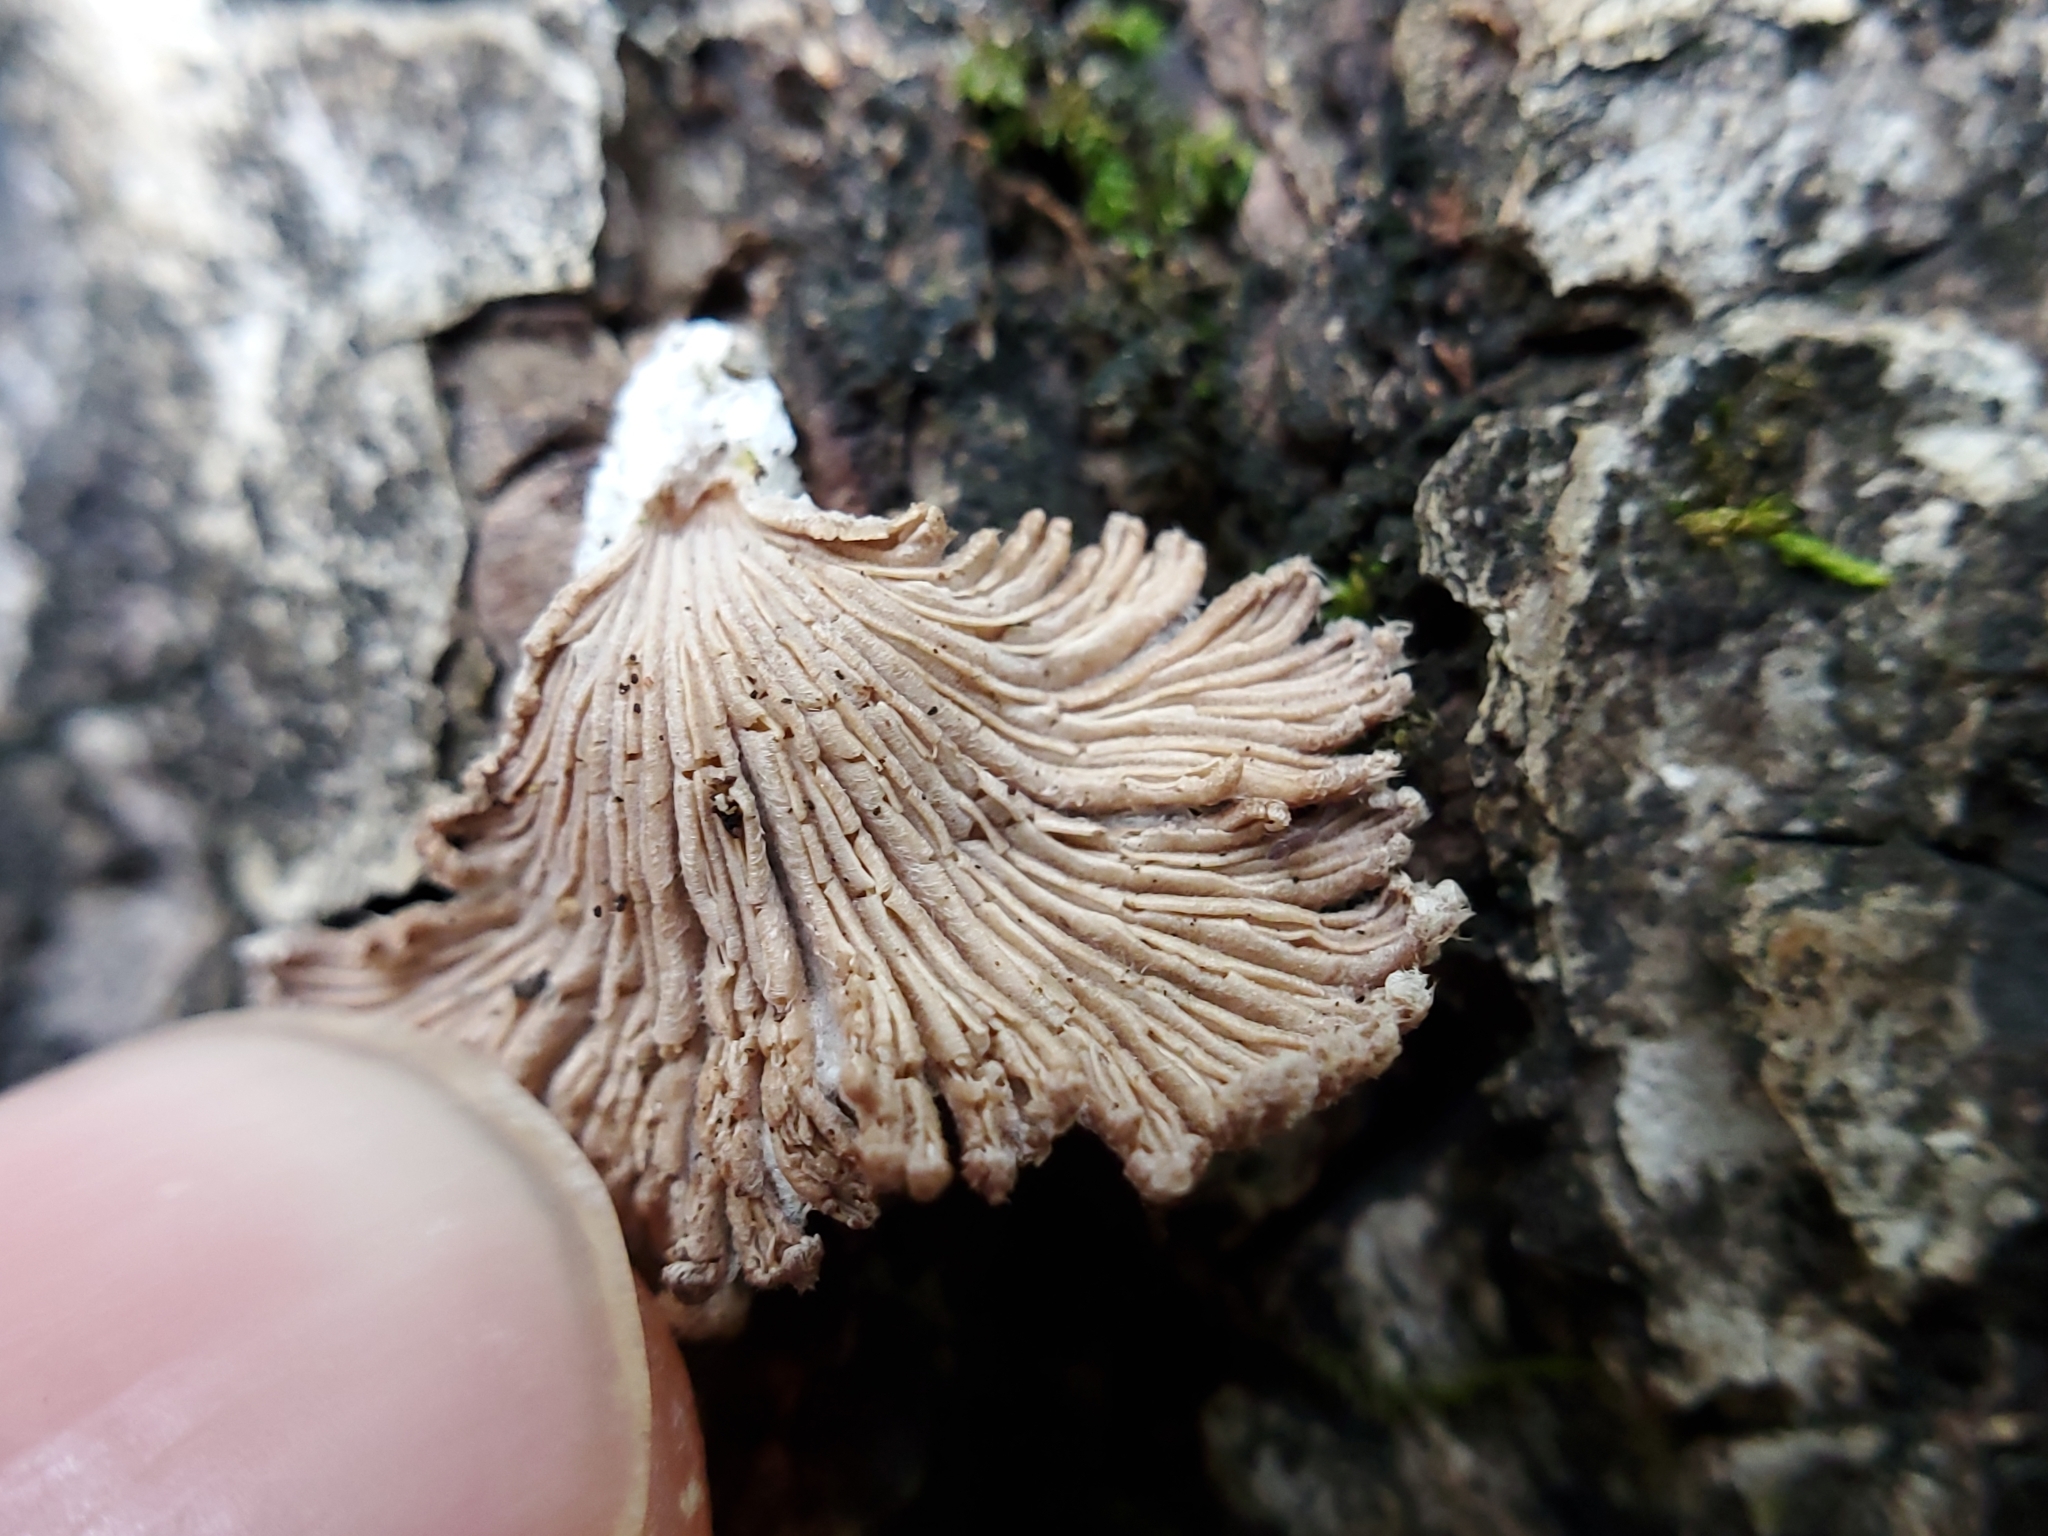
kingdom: Fungi
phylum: Basidiomycota
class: Agaricomycetes
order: Agaricales
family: Schizophyllaceae
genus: Schizophyllum
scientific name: Schizophyllum commune
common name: Common porecrust
